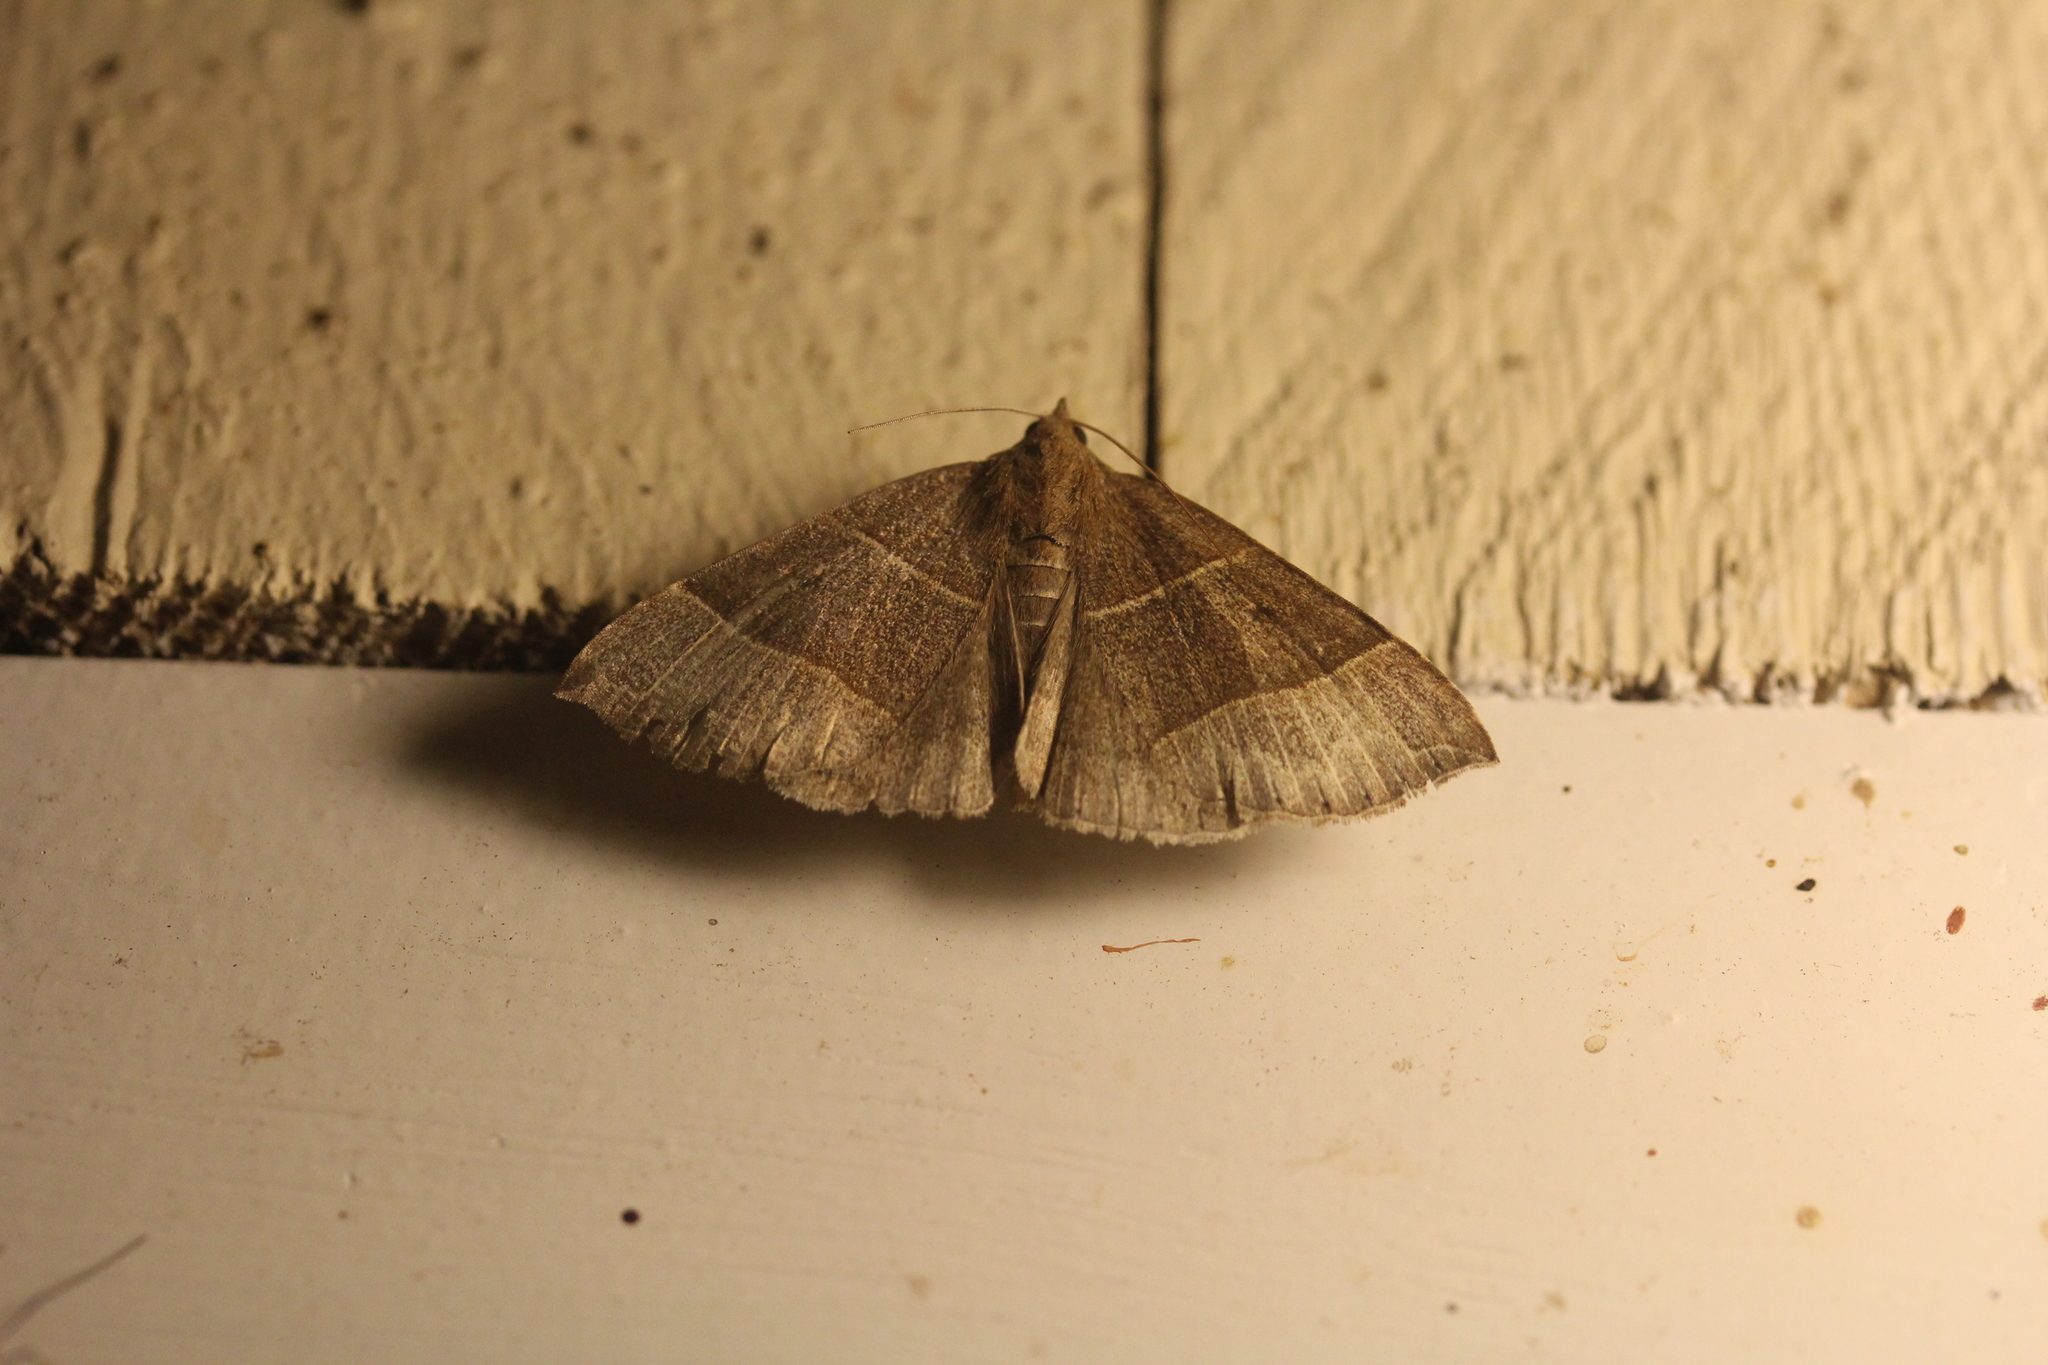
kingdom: Animalia
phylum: Arthropoda
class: Insecta
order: Lepidoptera
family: Erebidae
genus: Parallelia
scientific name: Parallelia bistriaris
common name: Maple looper moth
